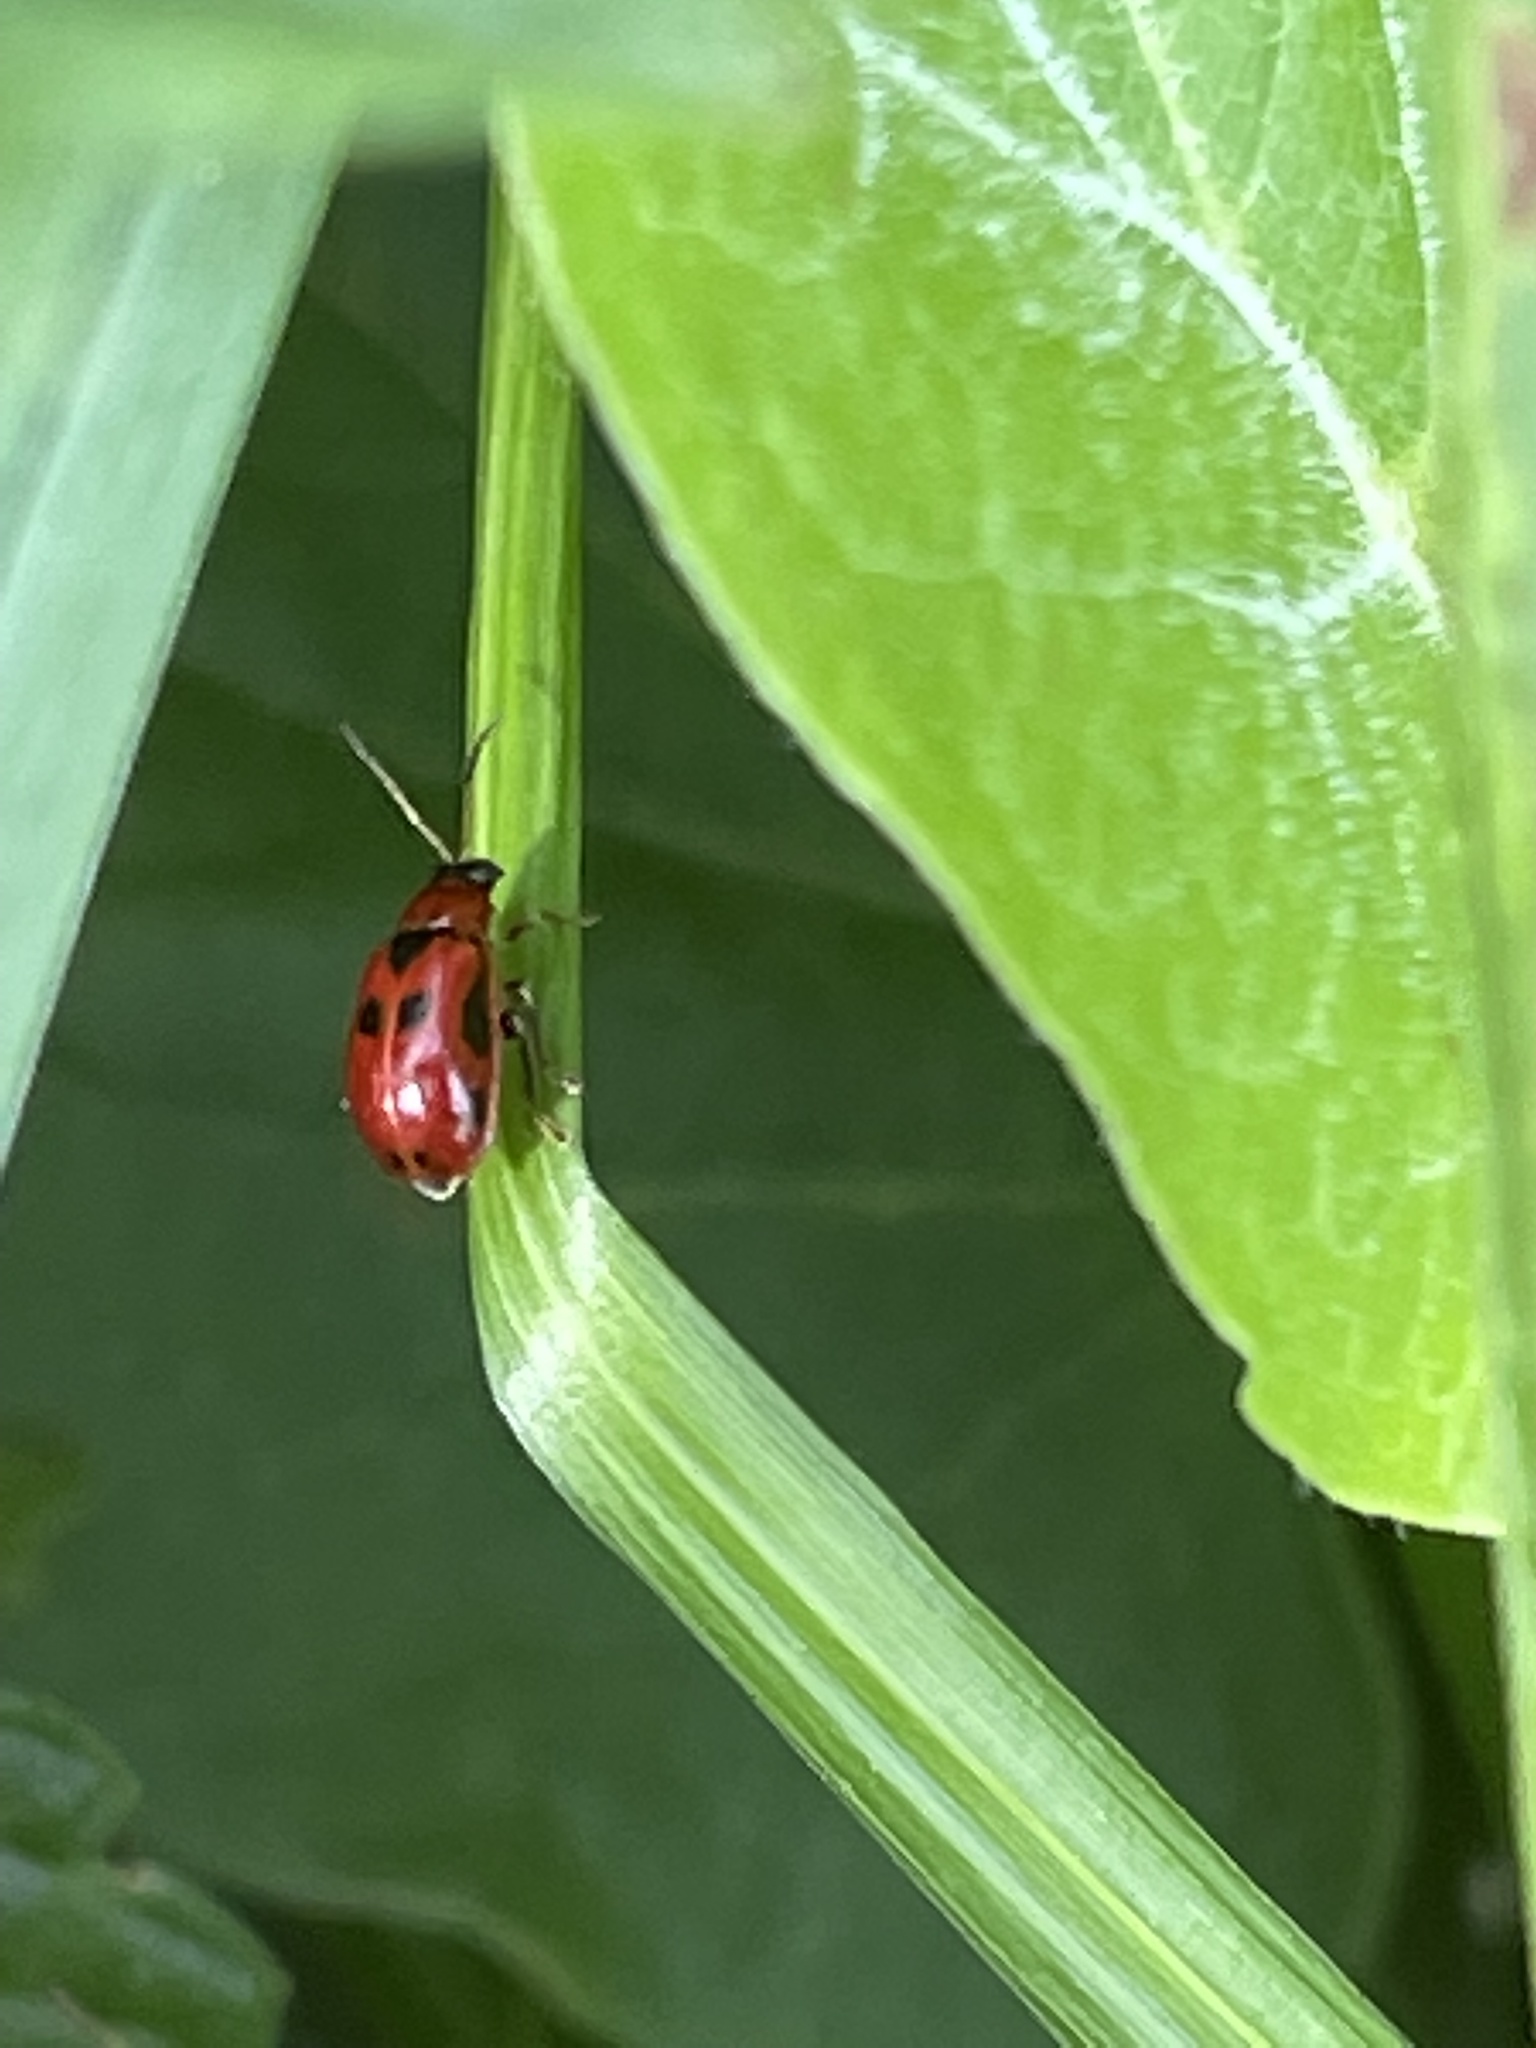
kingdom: Animalia
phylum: Arthropoda
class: Insecta
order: Coleoptera
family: Chrysomelidae
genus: Cerotoma
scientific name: Cerotoma trifurcata
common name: Bean leaf beetle
